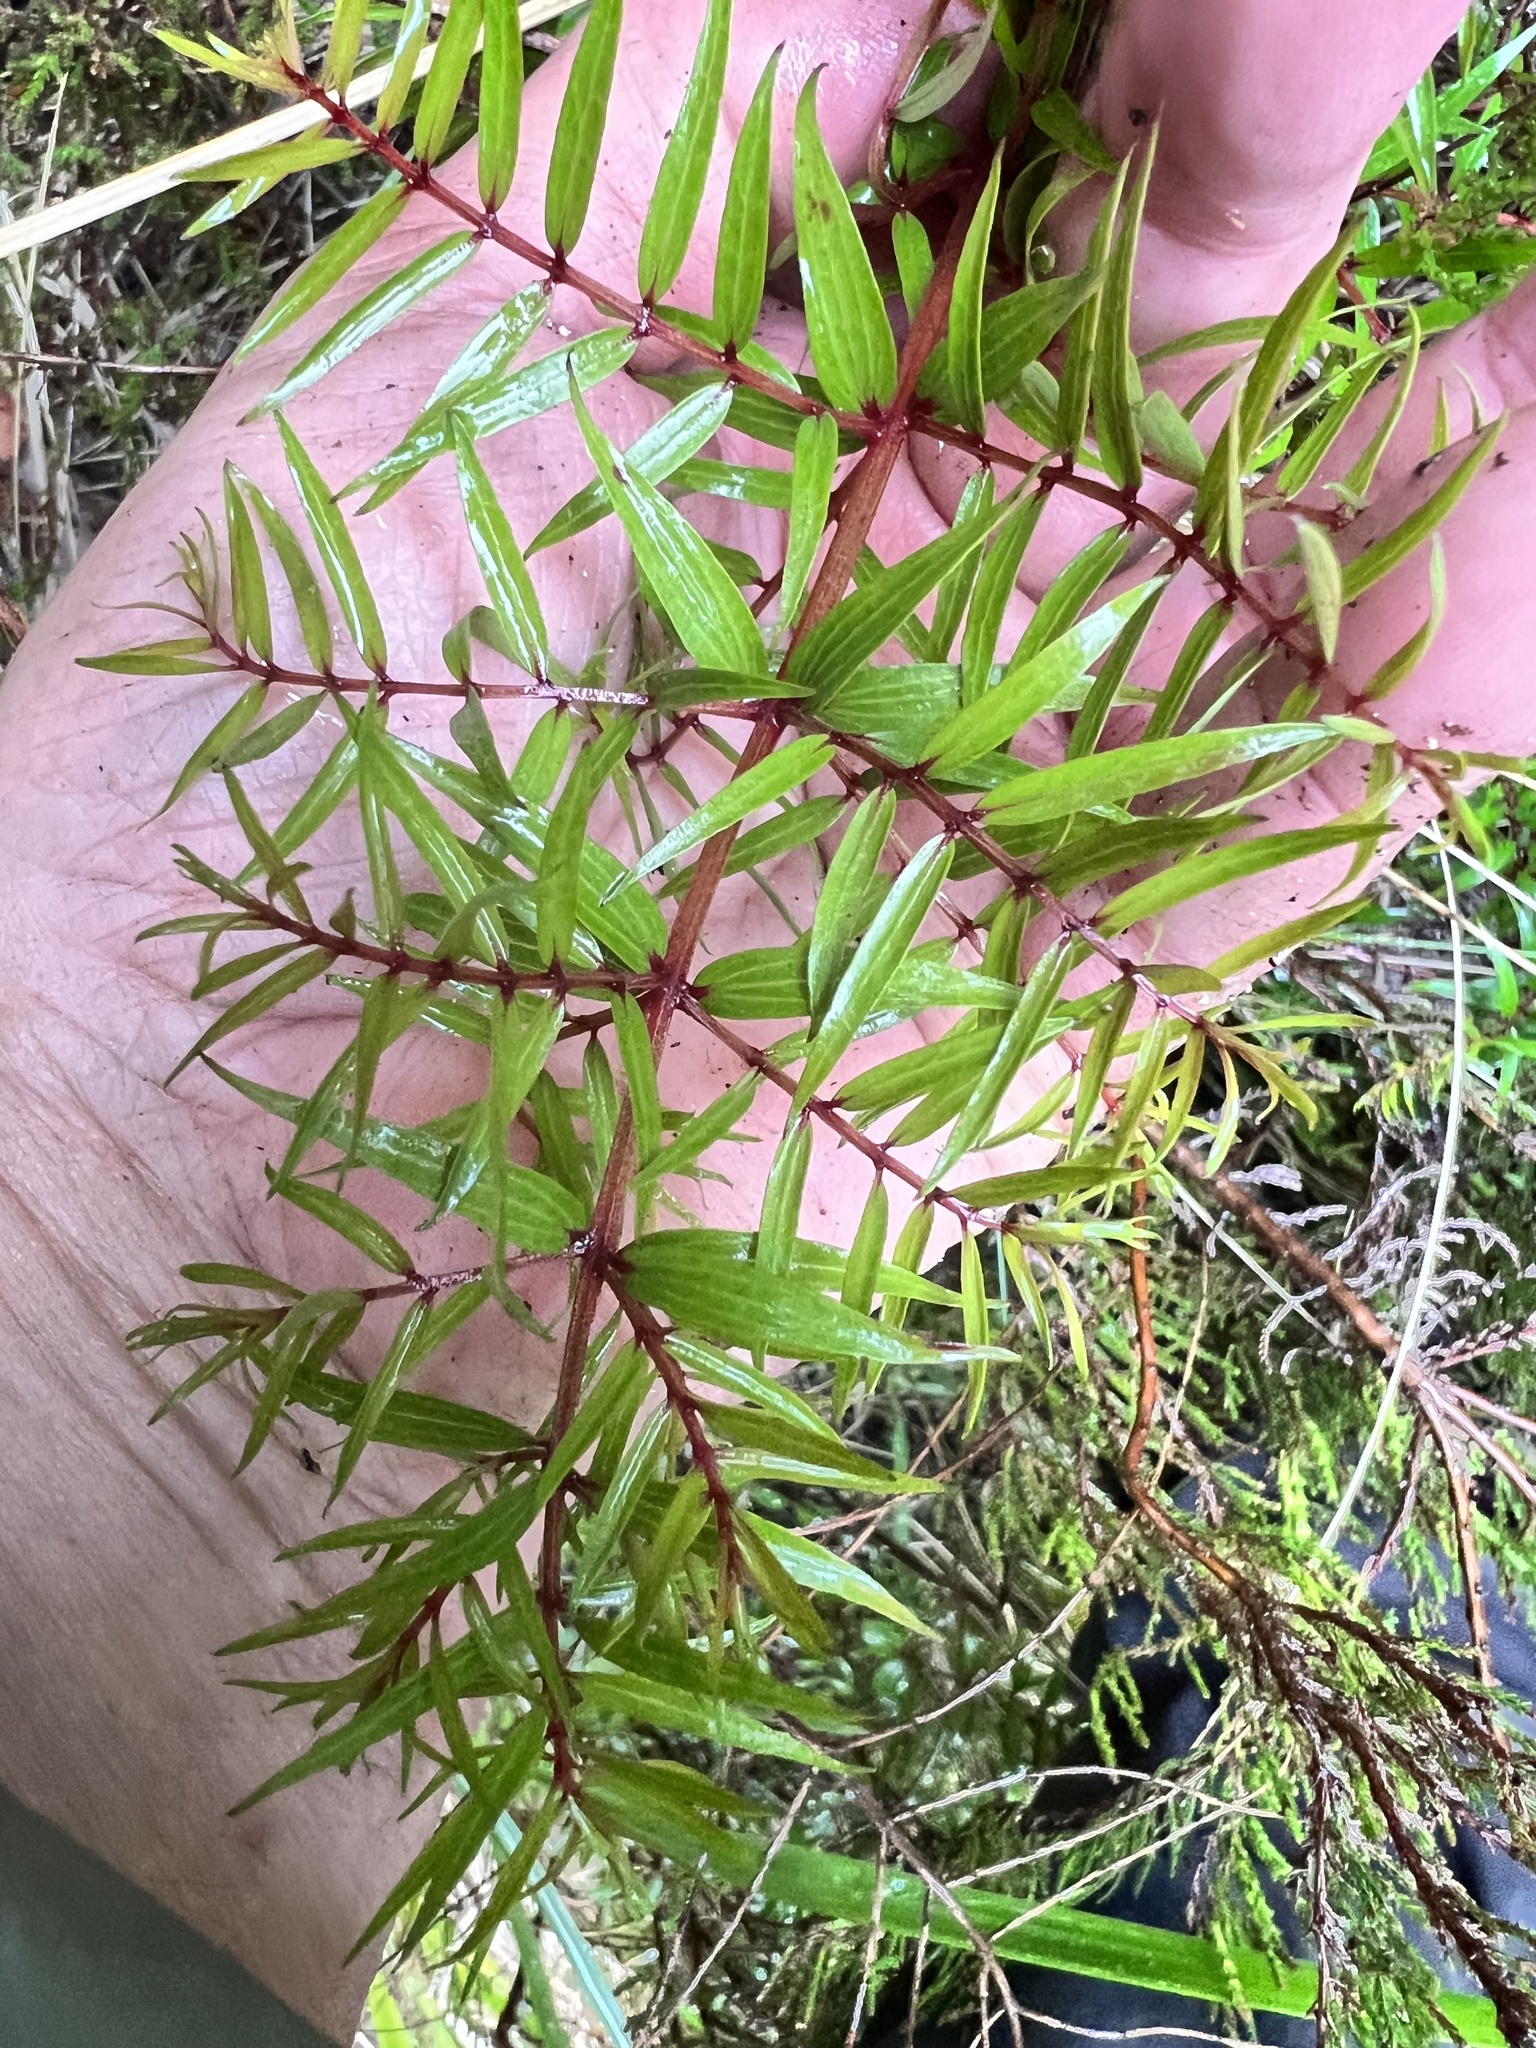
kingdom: Plantae
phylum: Tracheophyta
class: Magnoliopsida
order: Cucurbitales
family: Coriariaceae
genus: Coriaria
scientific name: Coriaria pteridoides
